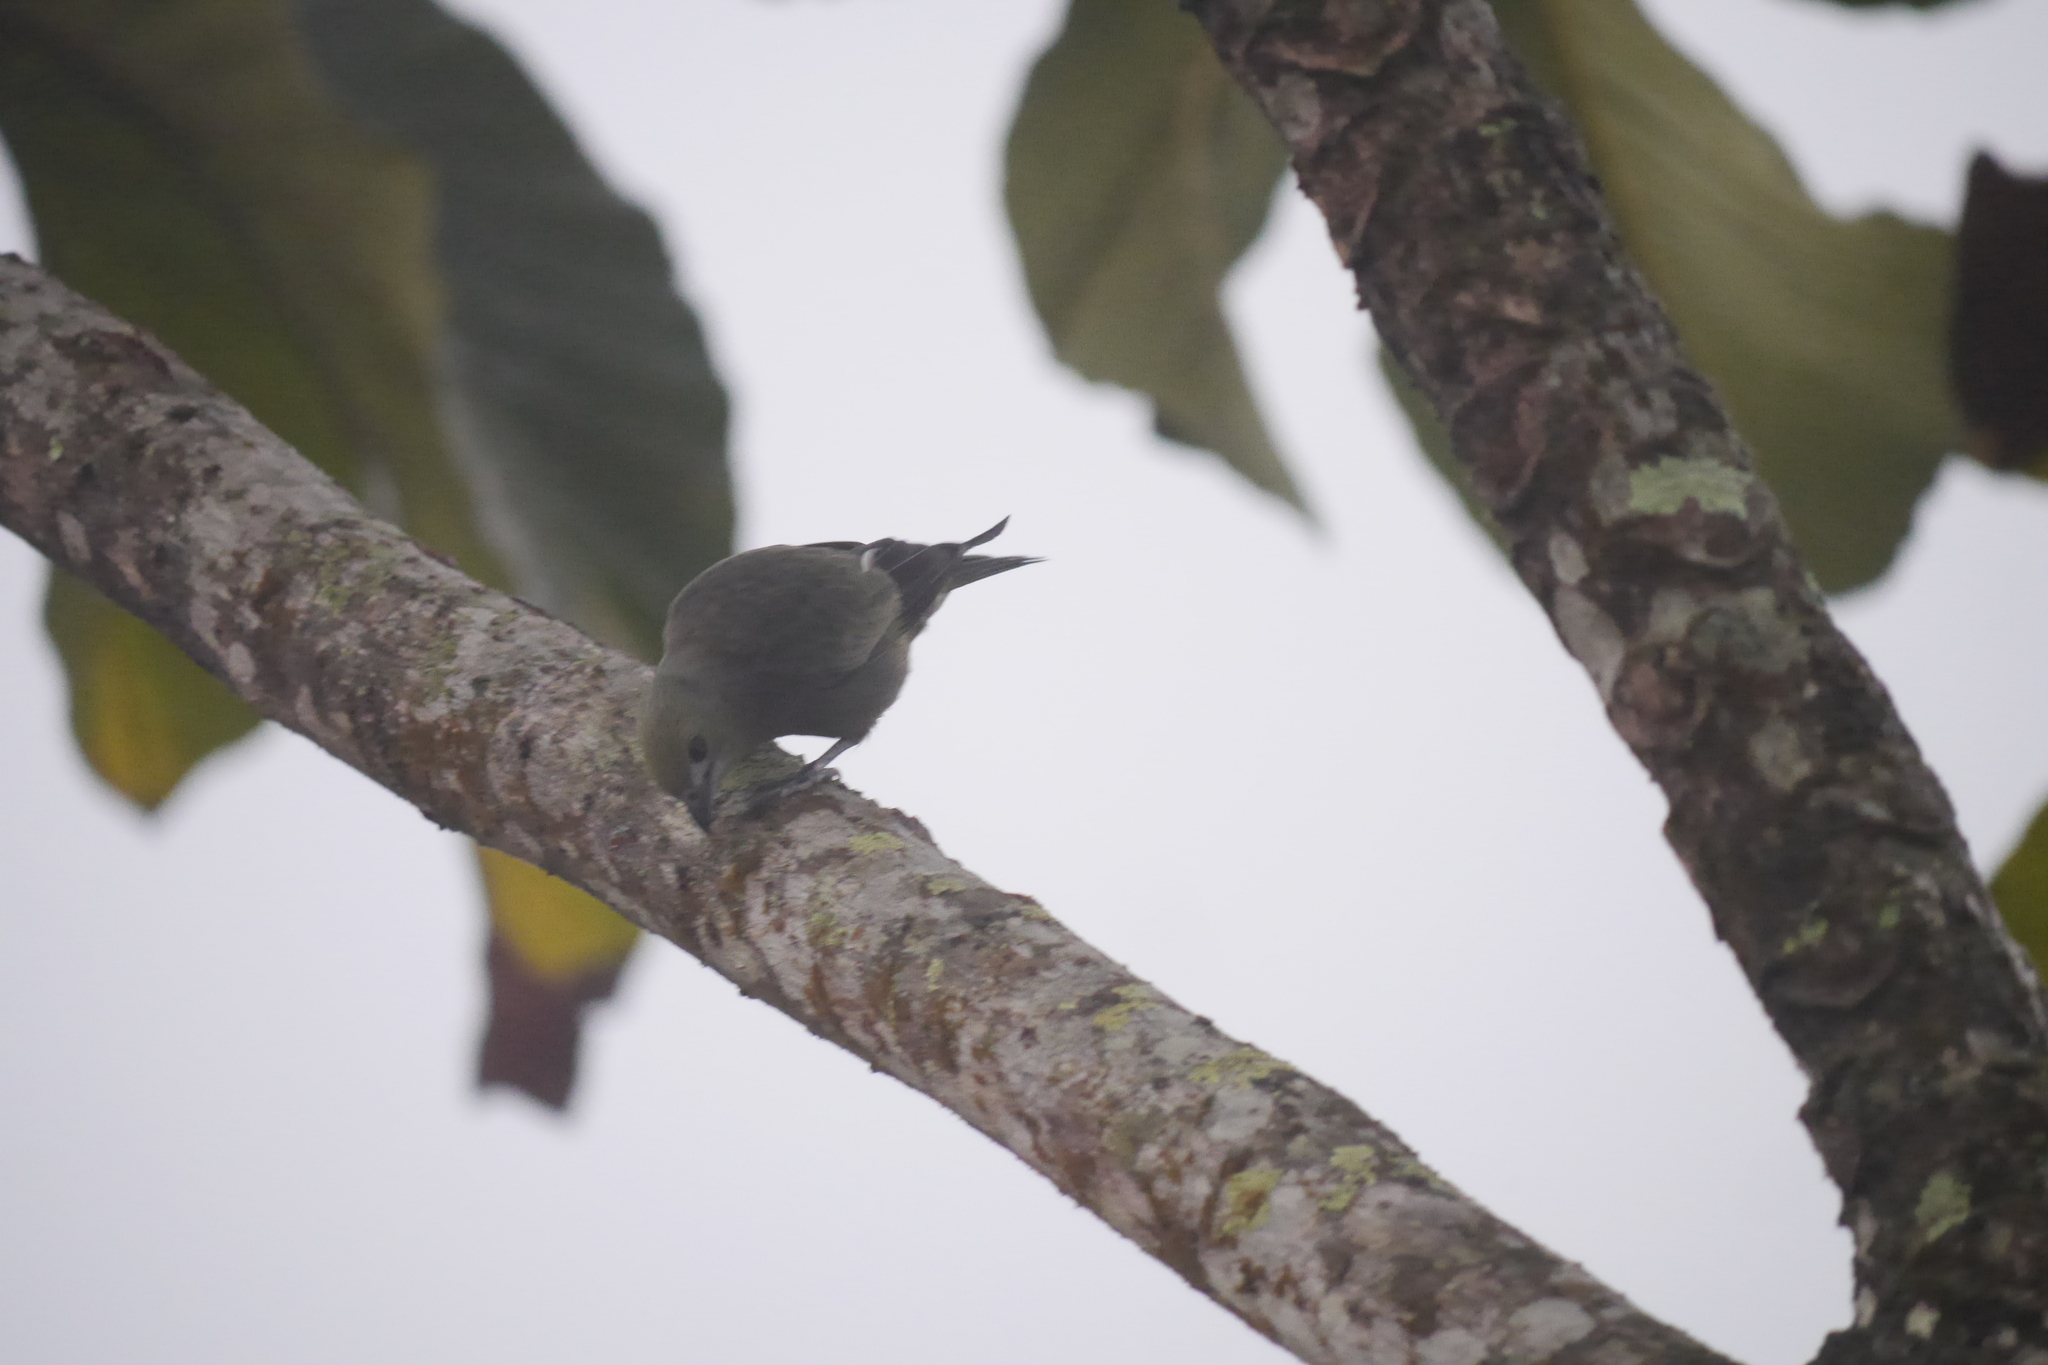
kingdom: Animalia
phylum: Chordata
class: Aves
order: Passeriformes
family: Thraupidae
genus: Thraupis
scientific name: Thraupis palmarum
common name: Palm tanager
